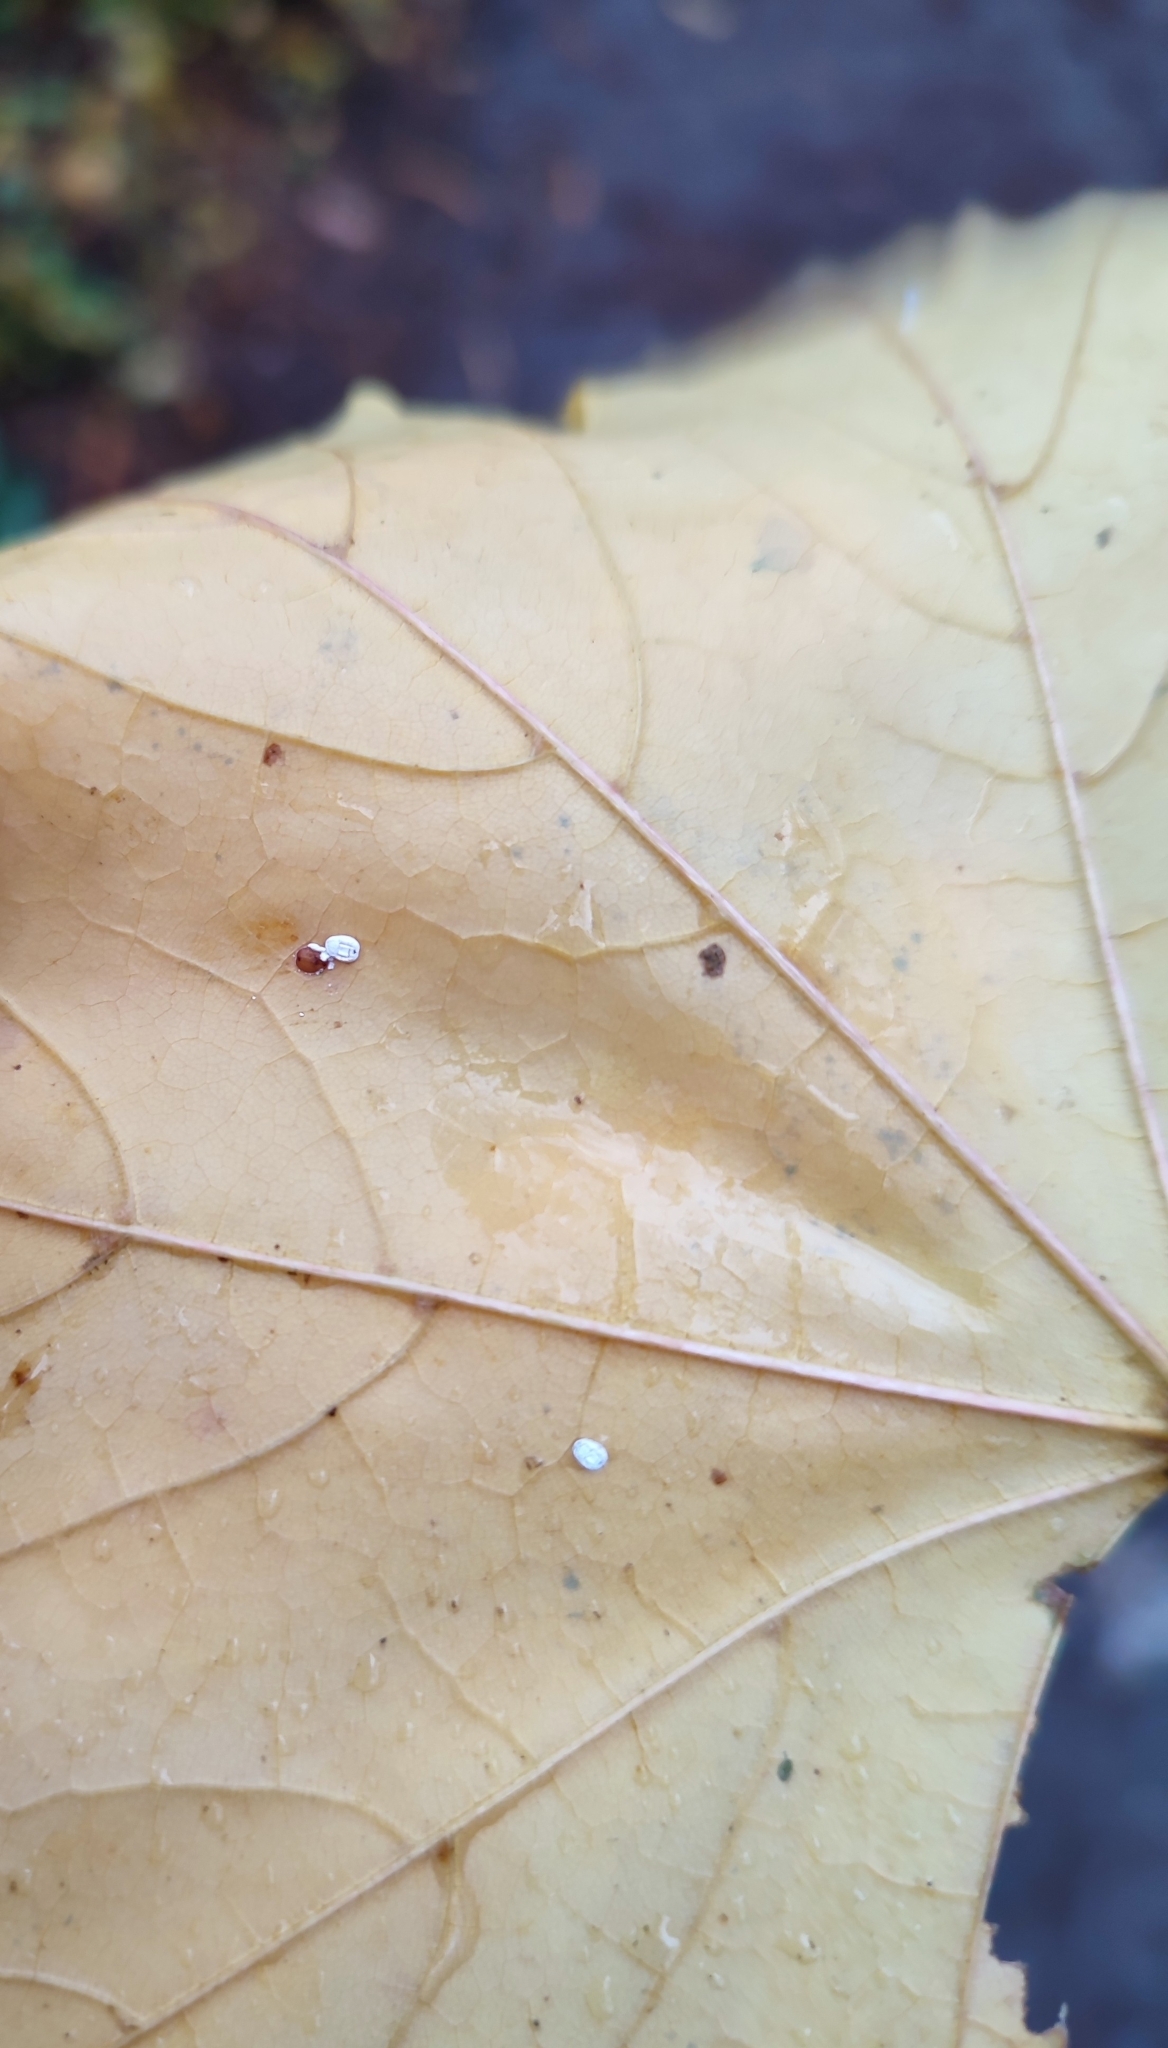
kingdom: Animalia
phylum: Arthropoda
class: Insecta
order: Hemiptera
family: Aleyrodidae
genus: Aleurochiton
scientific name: Aleurochiton aceris
